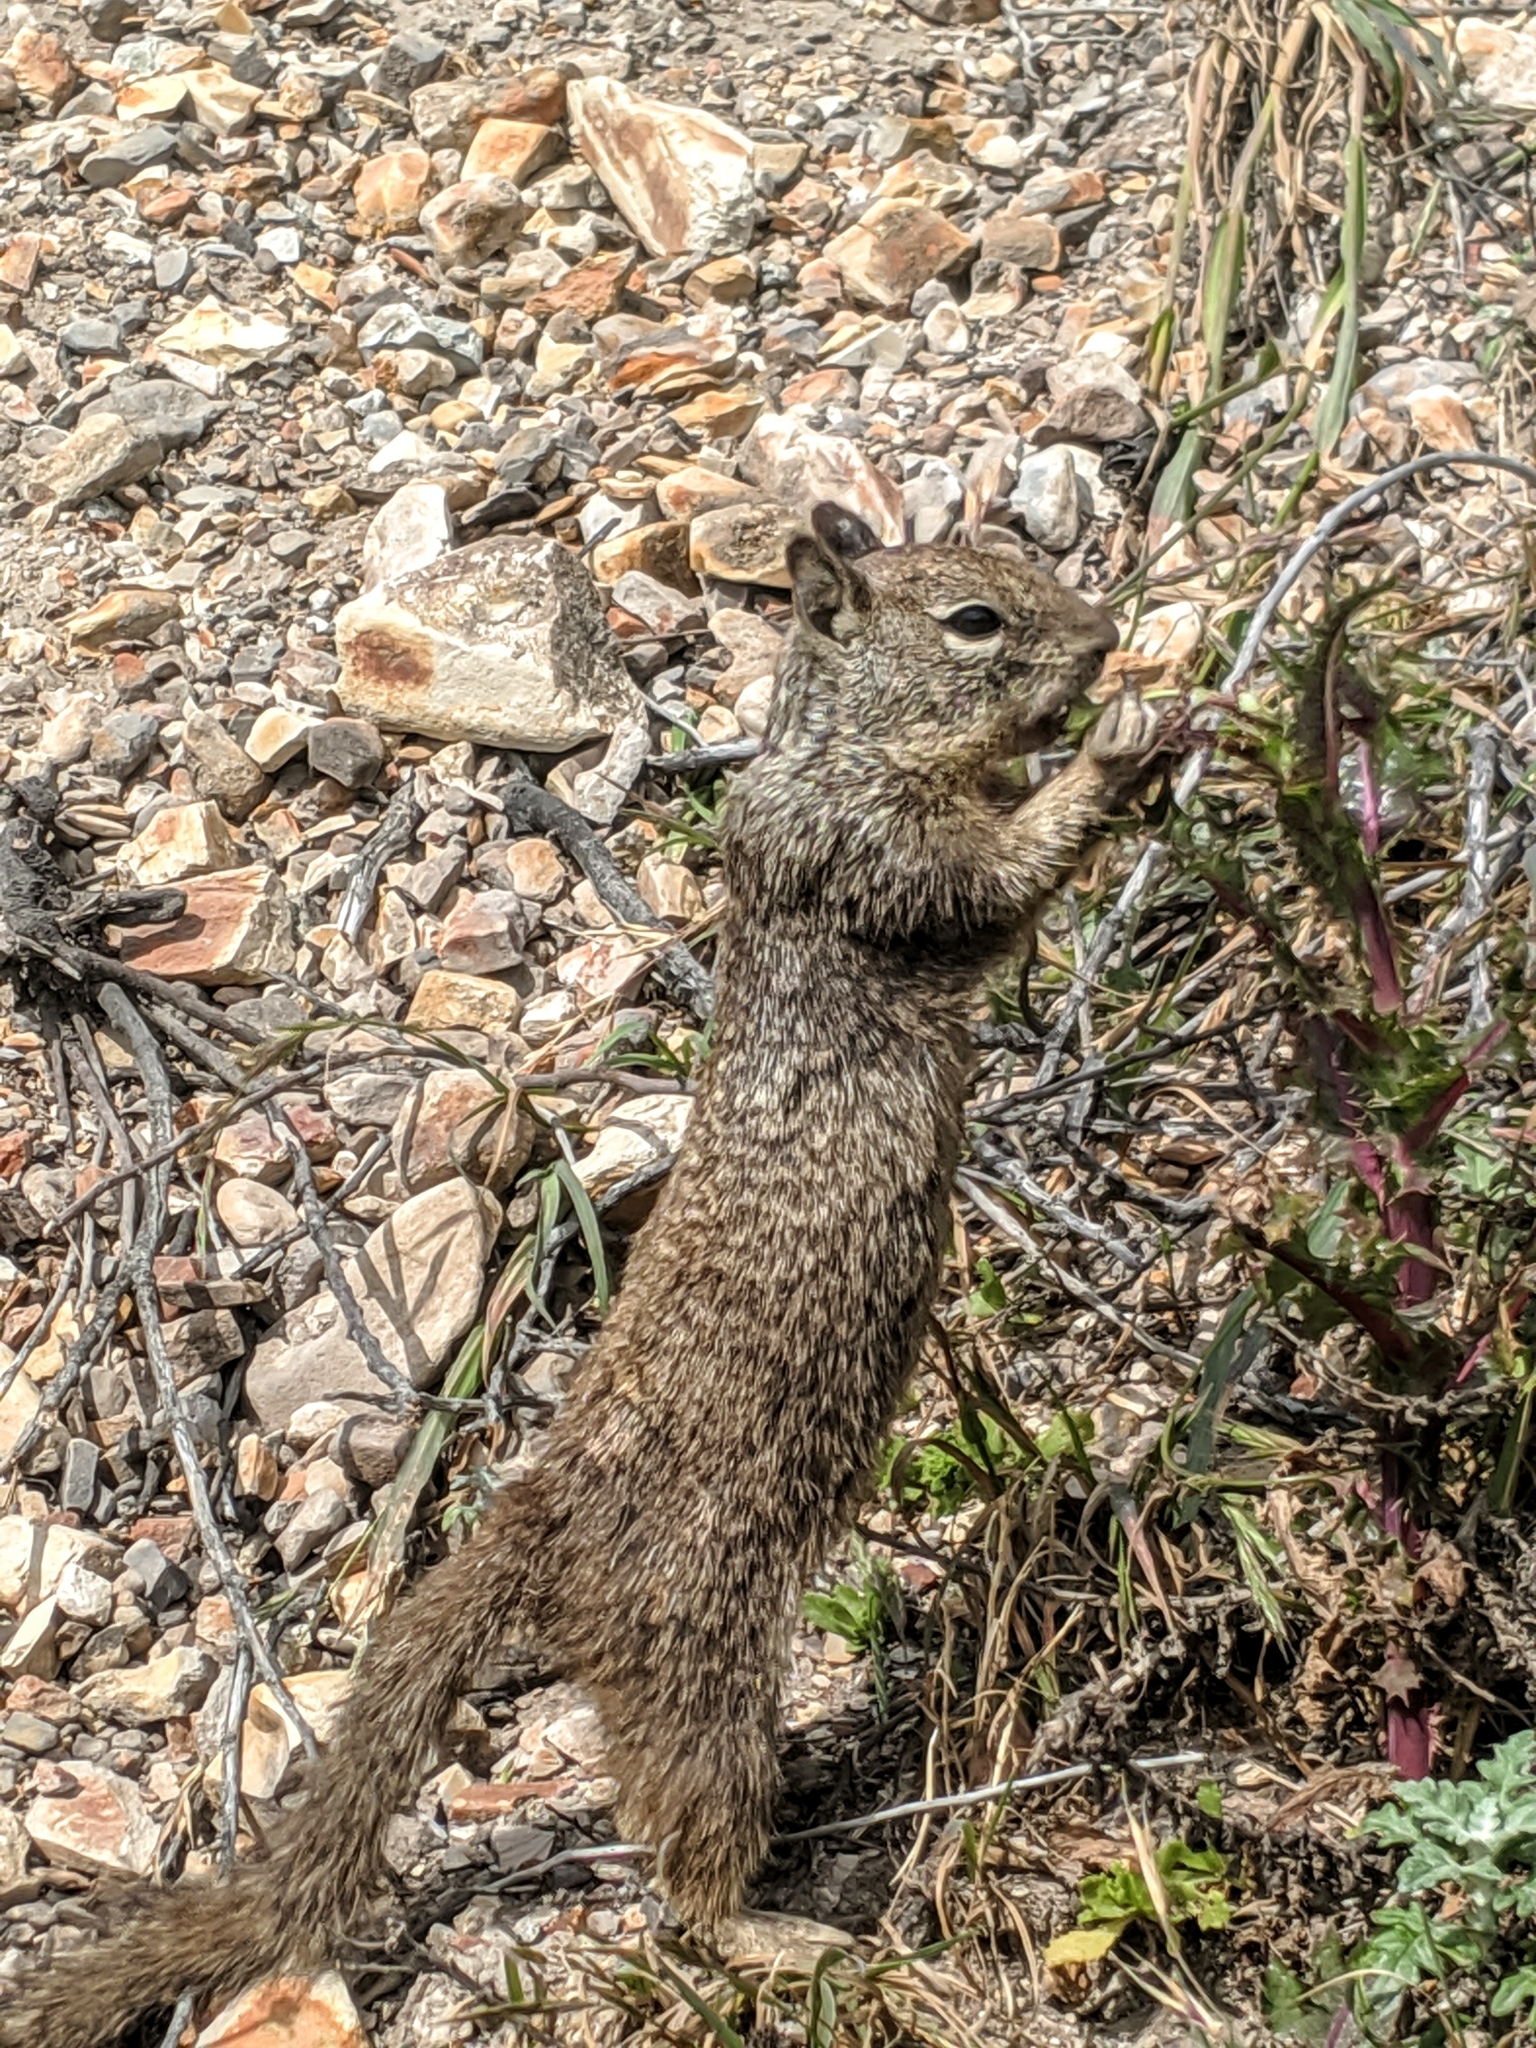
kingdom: Animalia
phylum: Chordata
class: Mammalia
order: Rodentia
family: Sciuridae
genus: Otospermophilus
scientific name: Otospermophilus beecheyi
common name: California ground squirrel
